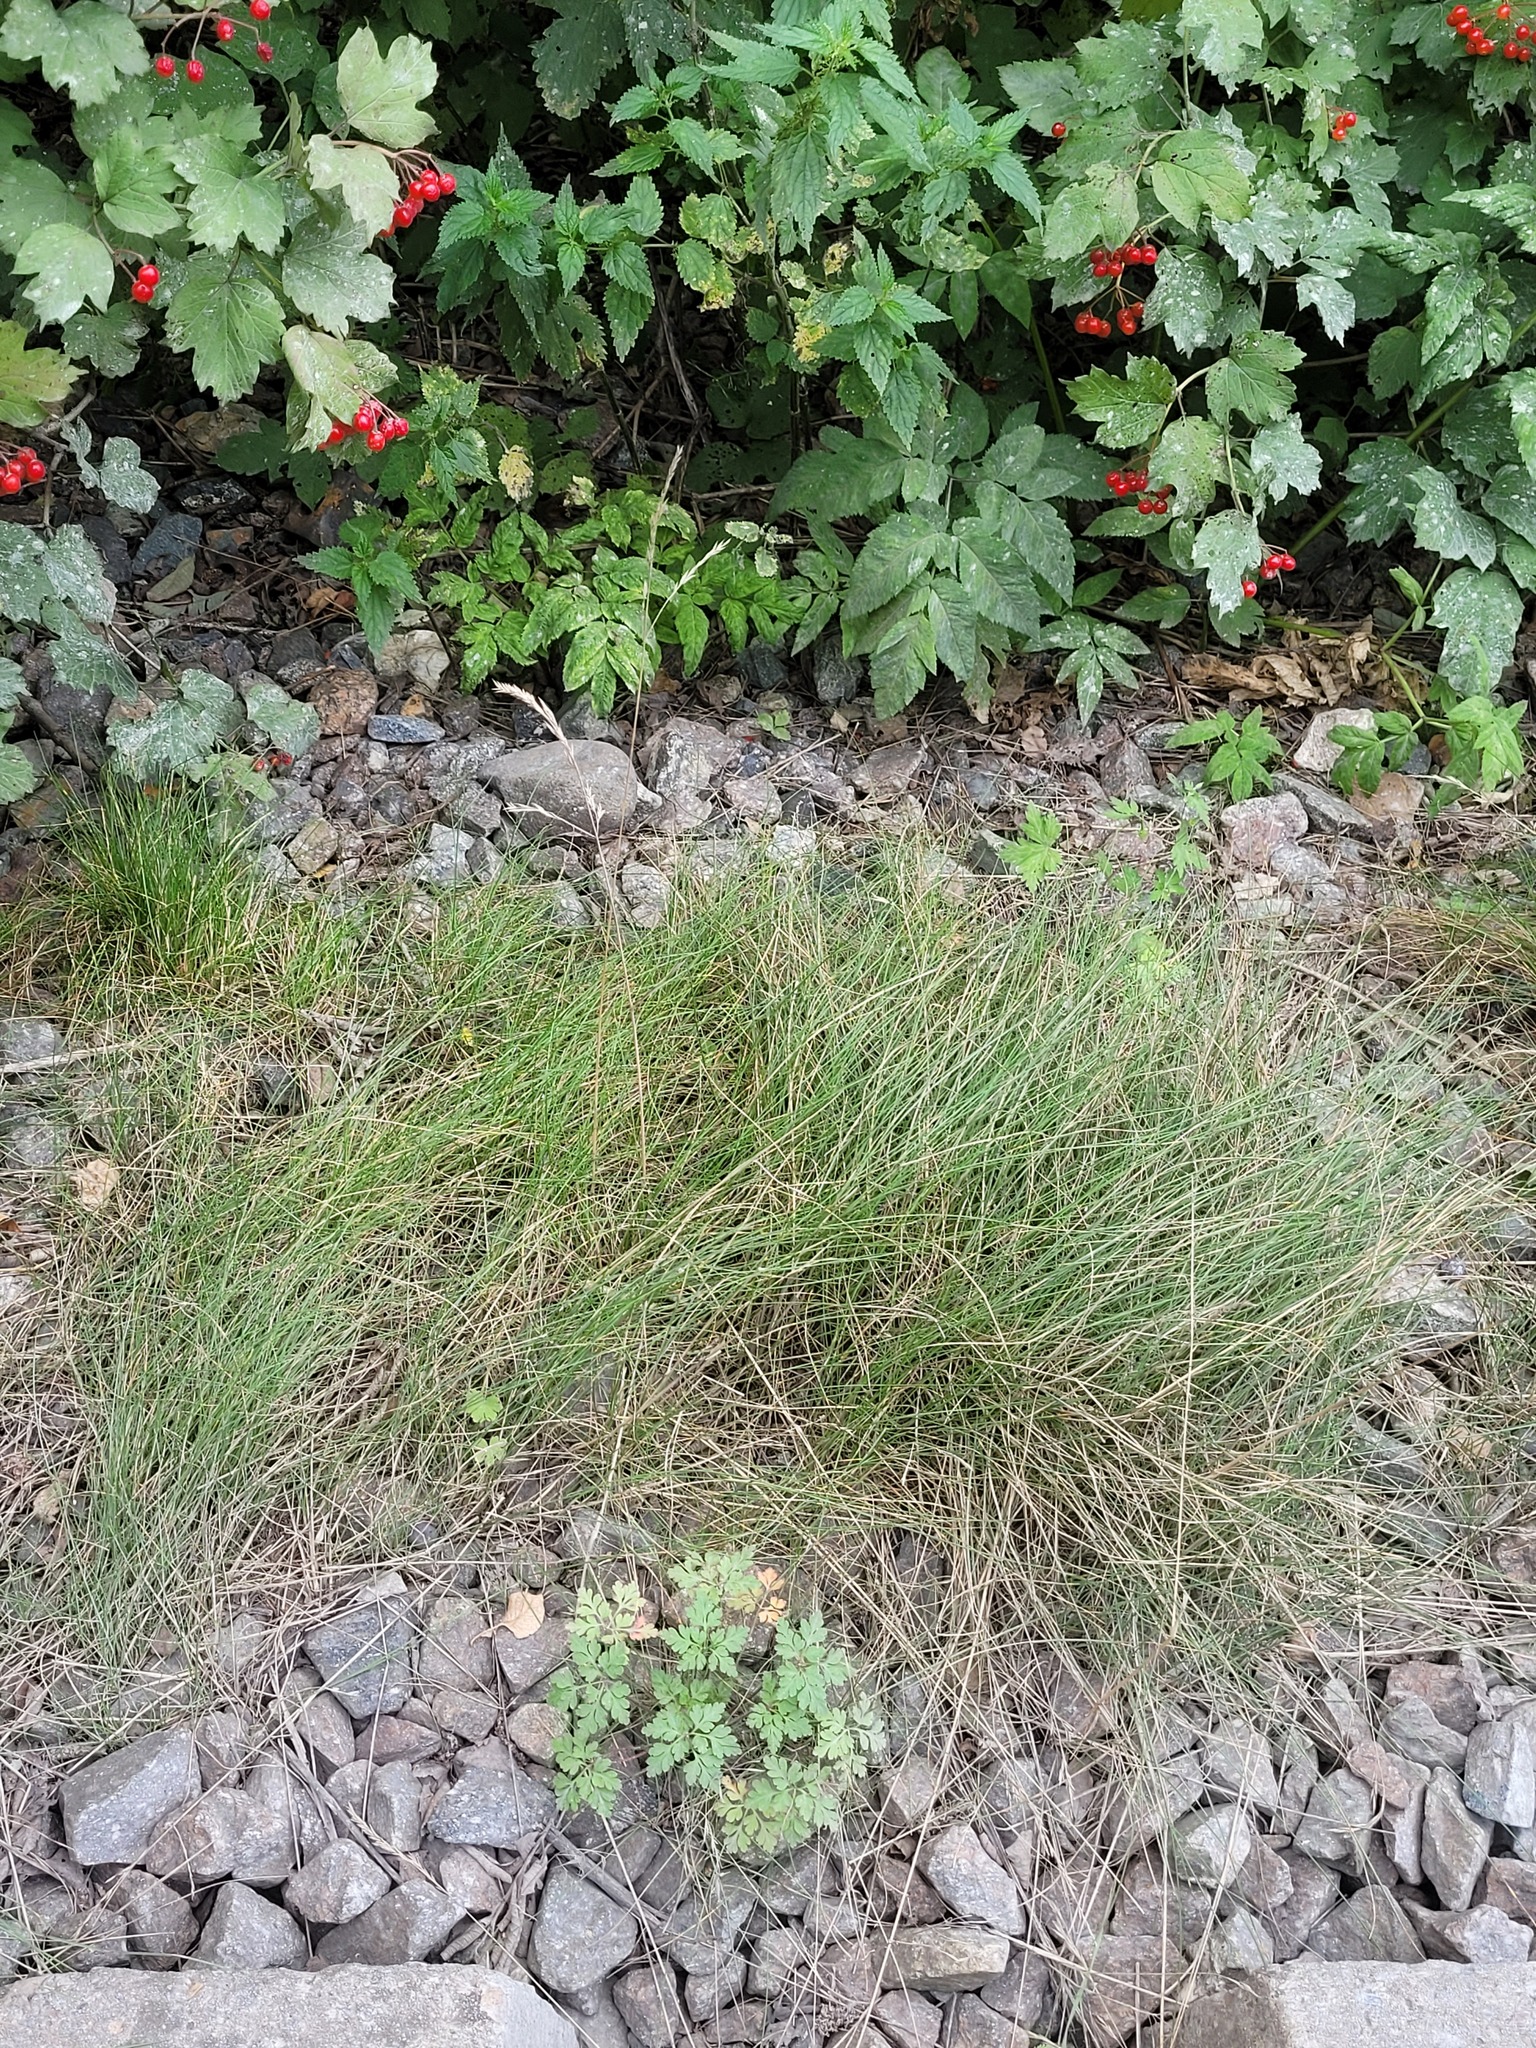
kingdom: Plantae
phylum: Tracheophyta
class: Liliopsida
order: Poales
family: Poaceae
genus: Festuca
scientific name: Festuca rubra
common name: Red fescue
